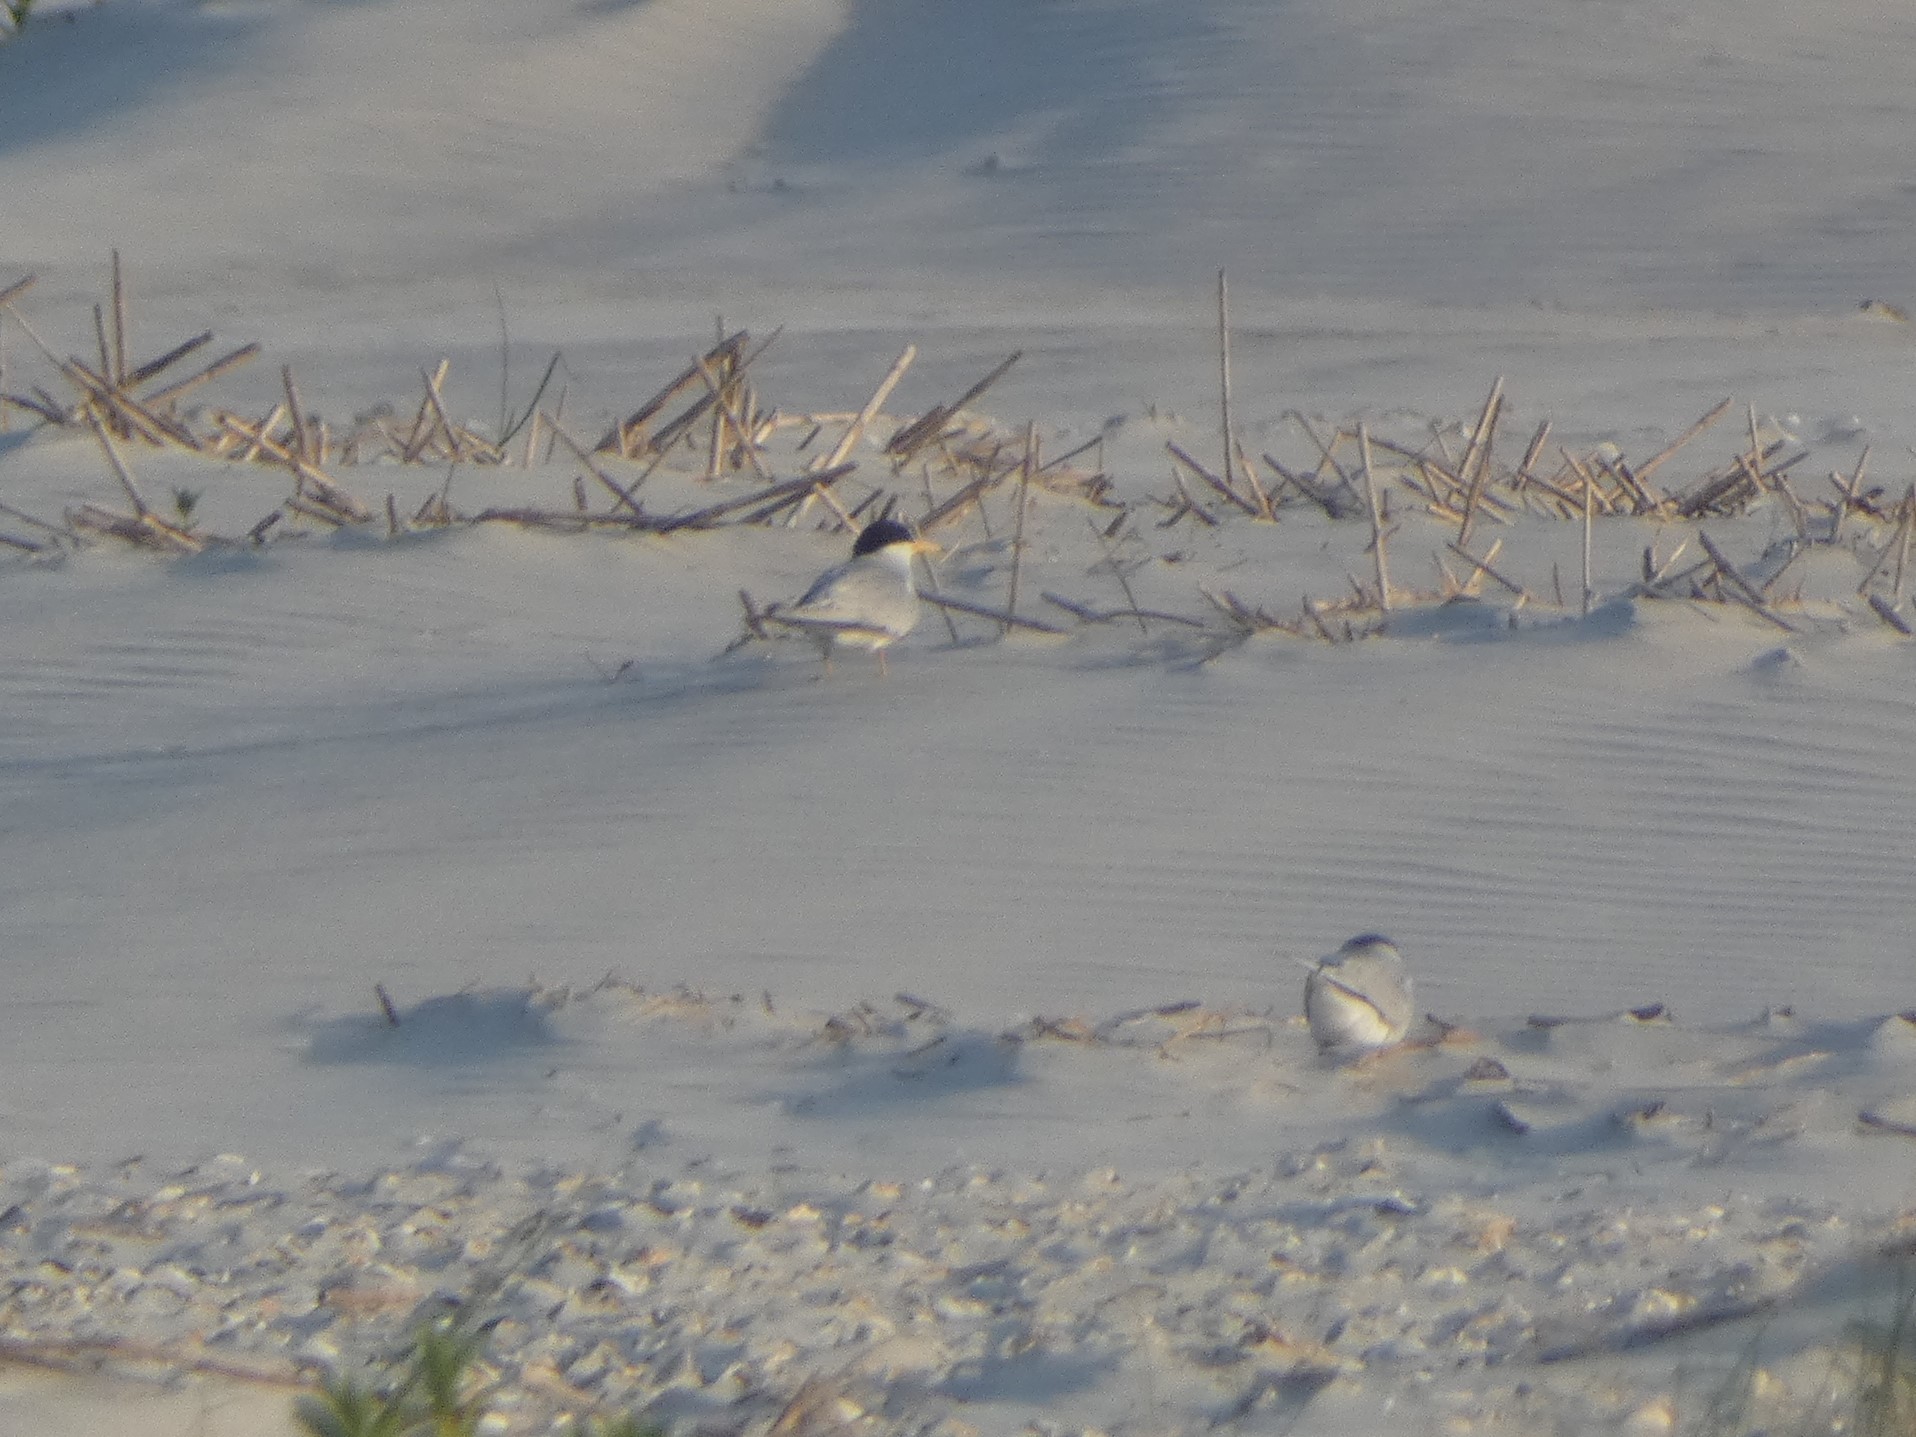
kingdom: Animalia
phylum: Chordata
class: Aves
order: Charadriiformes
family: Laridae
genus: Sternula
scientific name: Sternula antillarum
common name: Least tern
